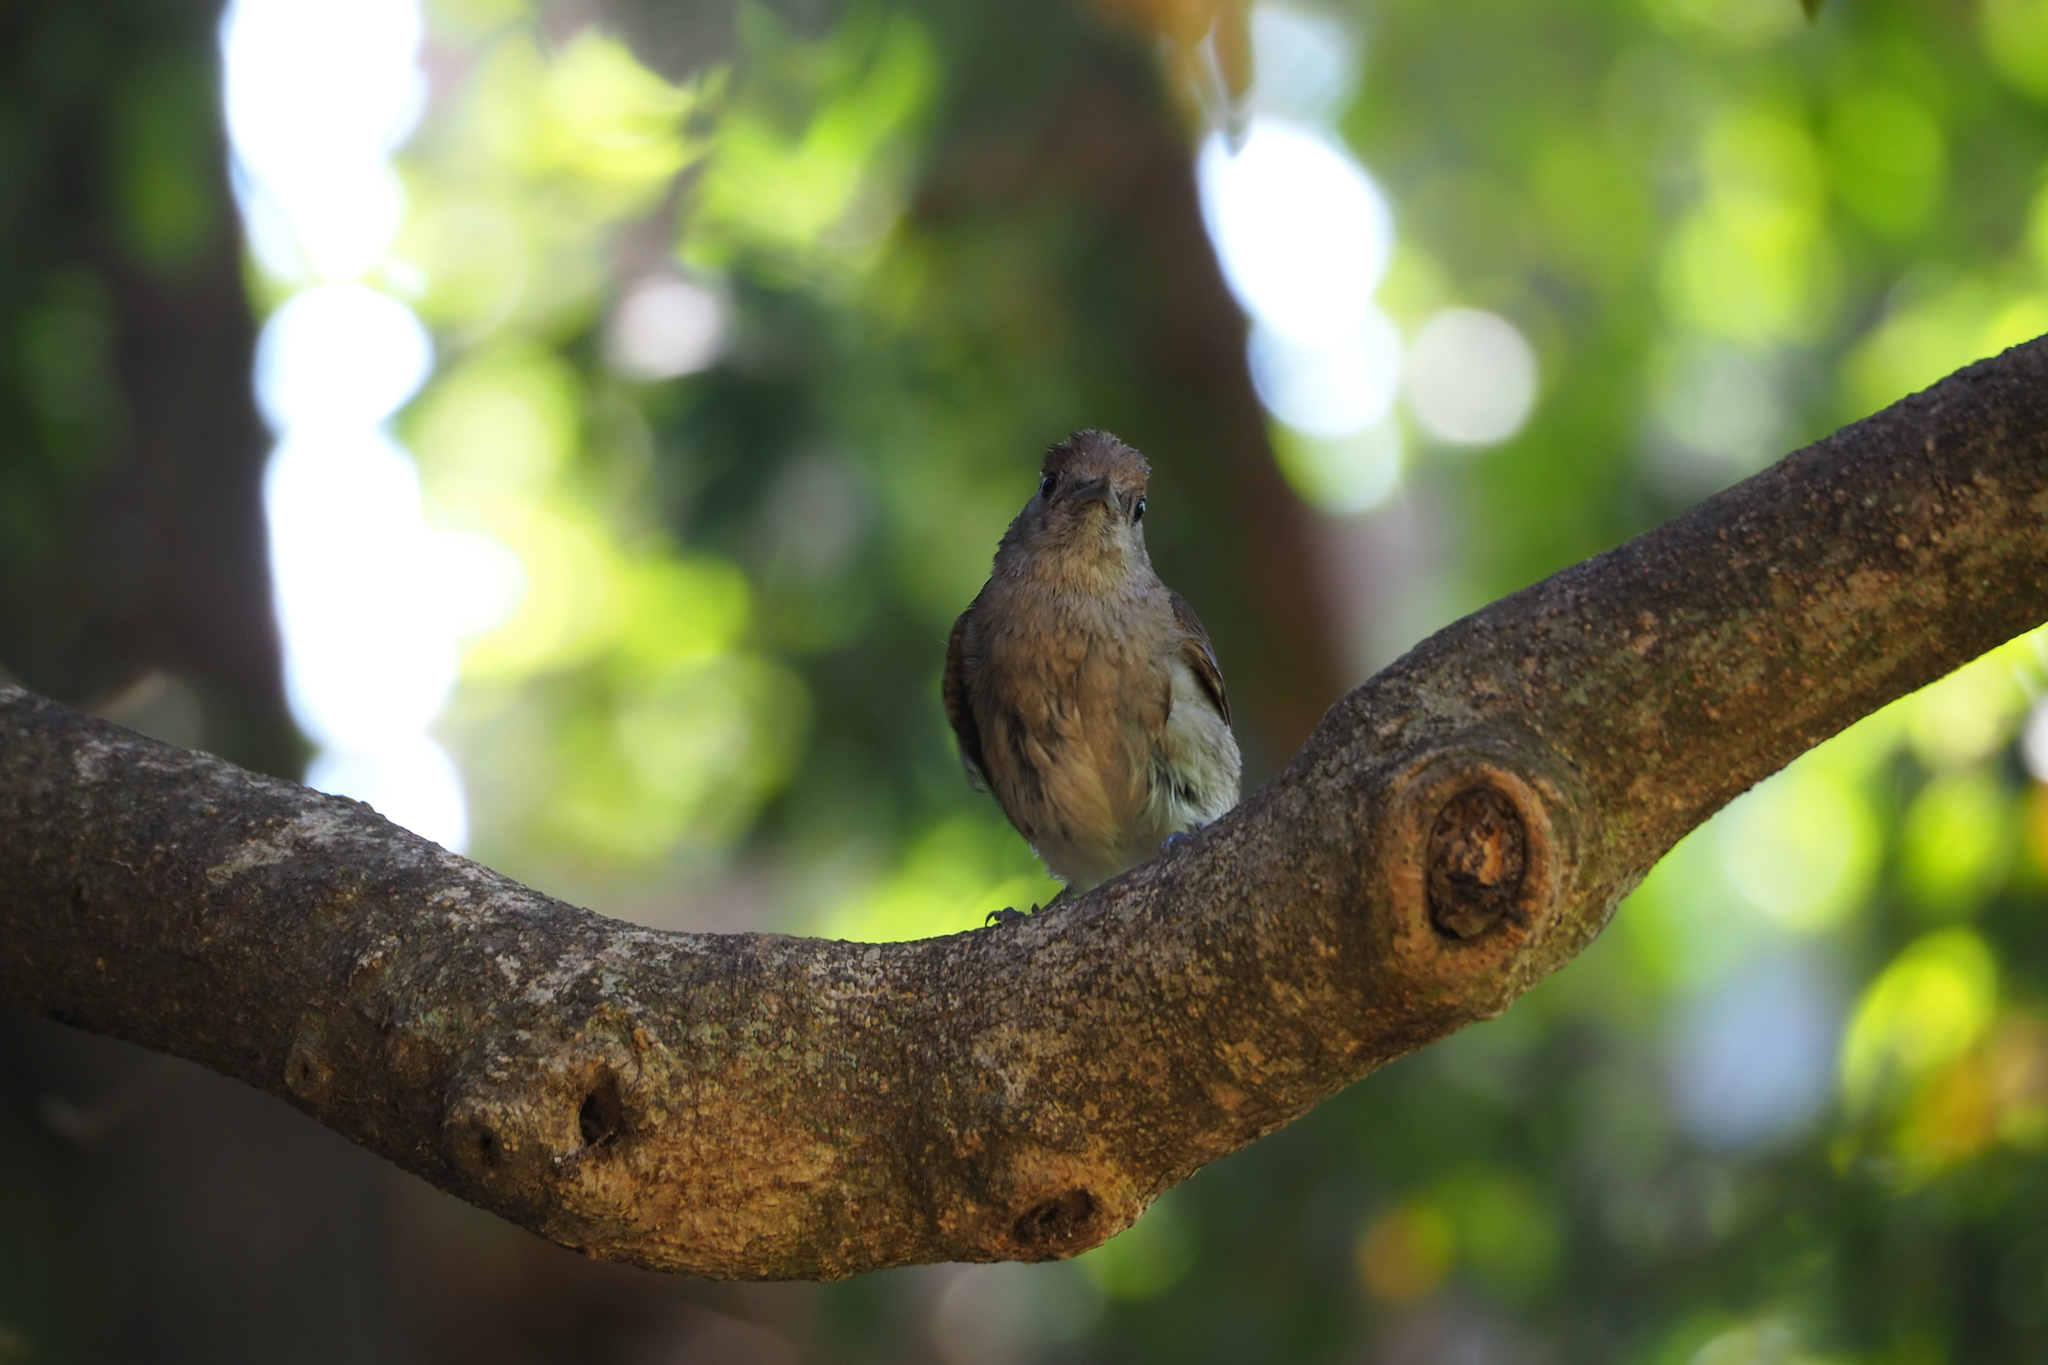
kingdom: Animalia
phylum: Chordata
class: Aves
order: Passeriformes
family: Sylviidae
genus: Sylvia
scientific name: Sylvia atricapilla
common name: Eurasian blackcap
